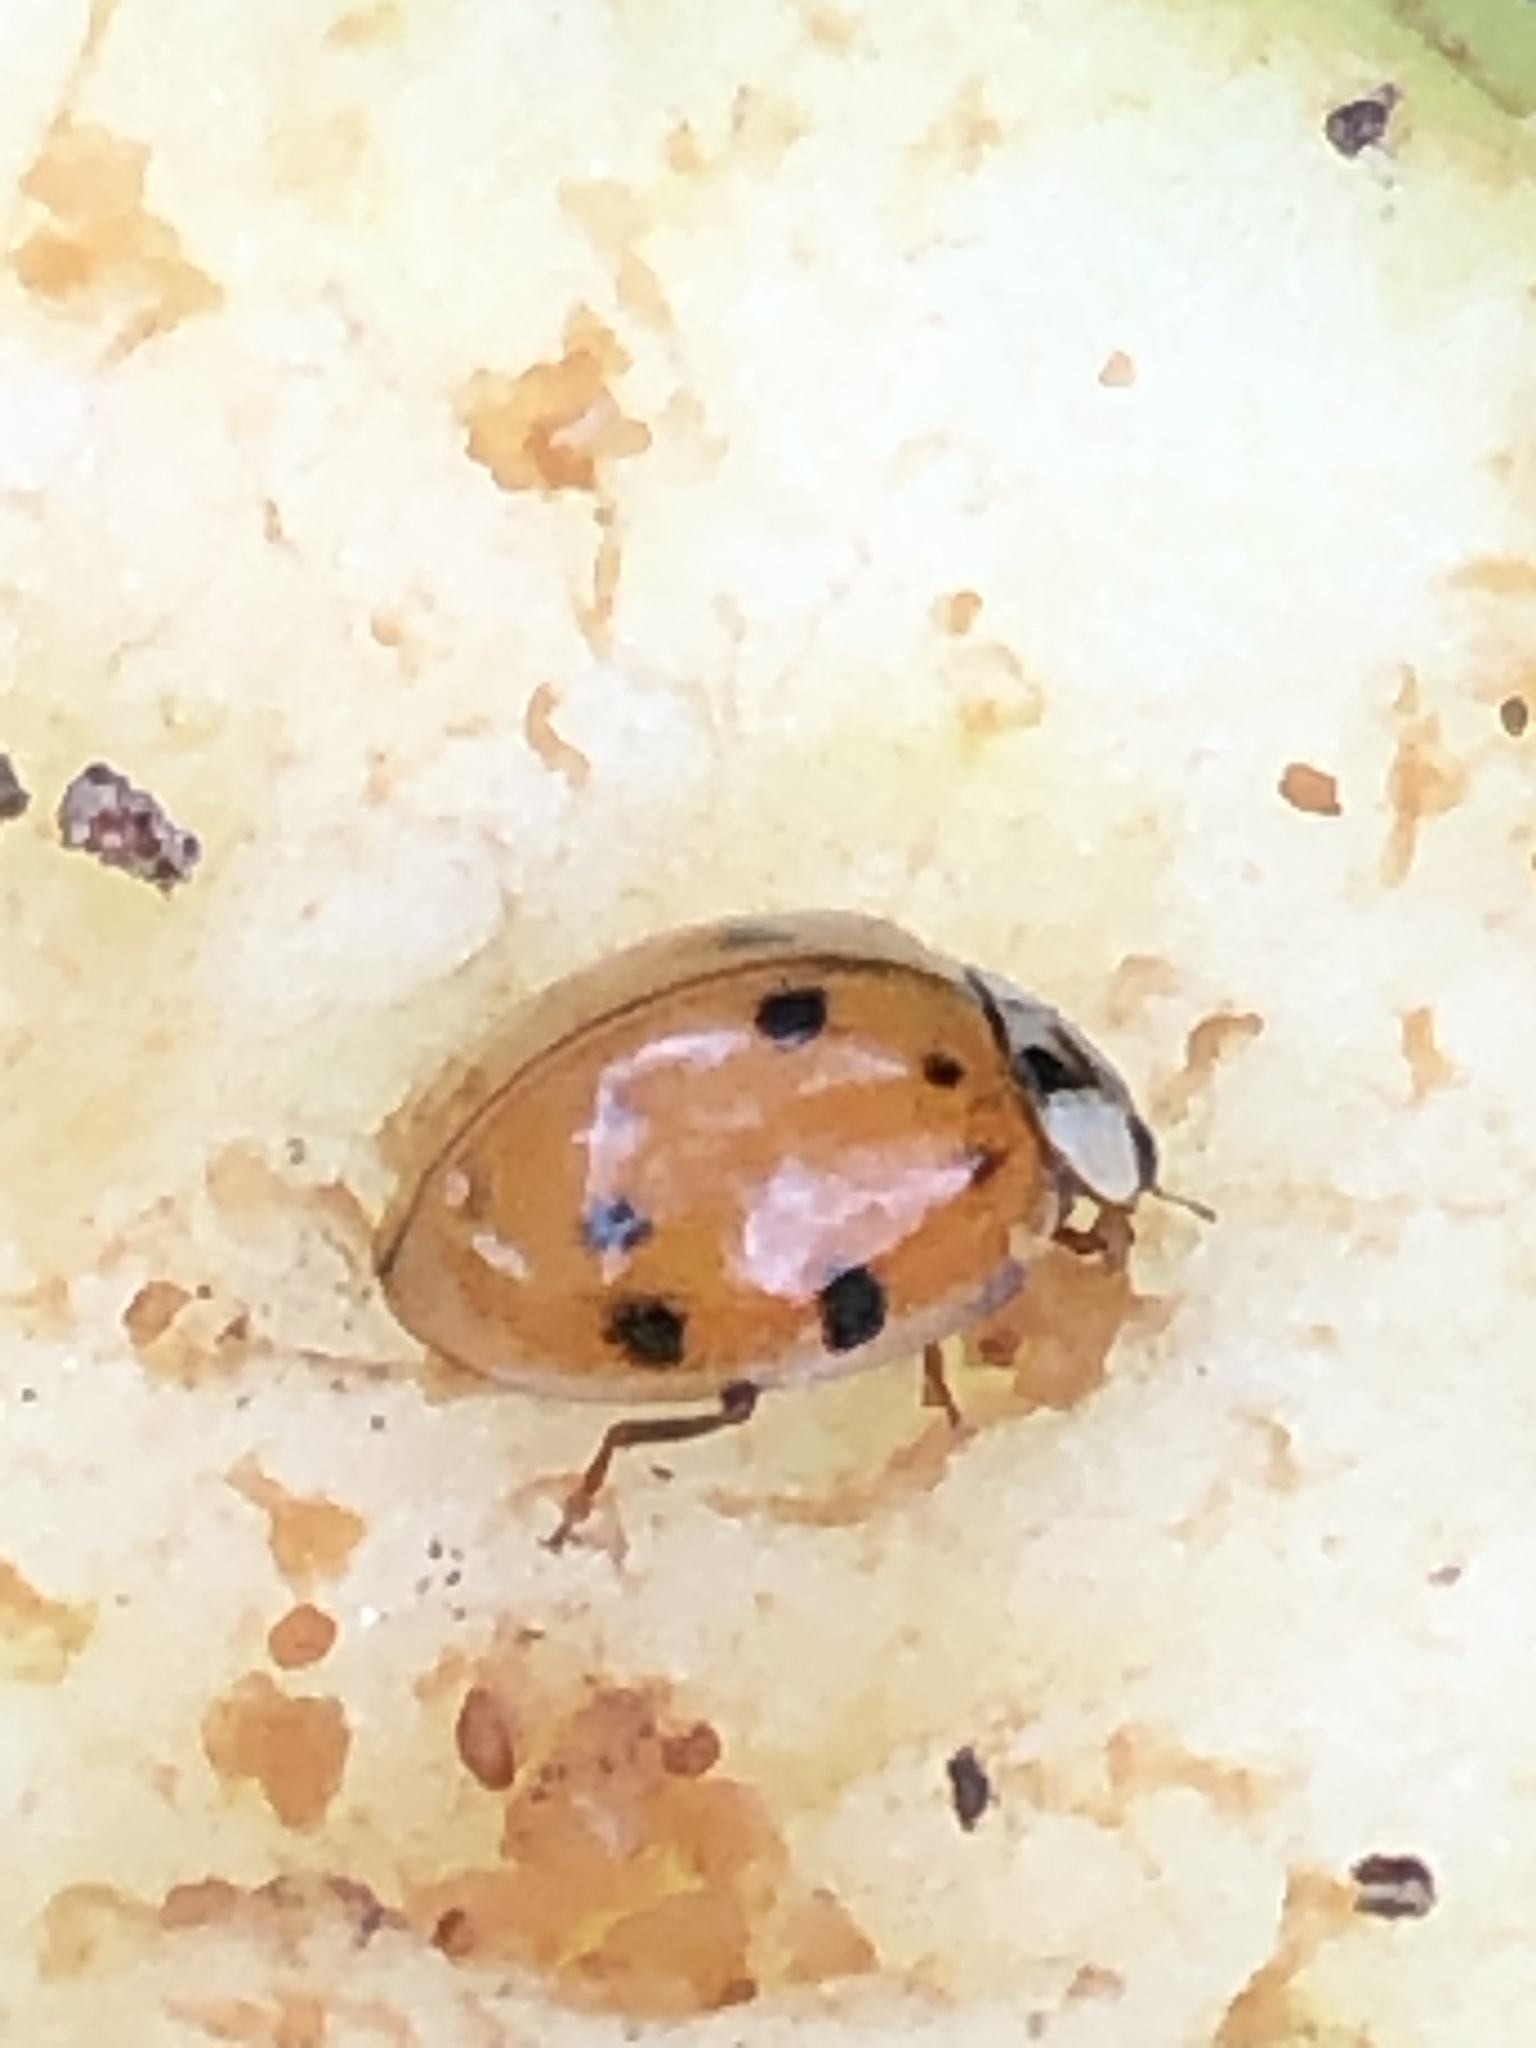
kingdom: Animalia
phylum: Arthropoda
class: Insecta
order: Coleoptera
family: Coccinellidae
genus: Harmonia
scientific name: Harmonia axyridis
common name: Harlequin ladybird
